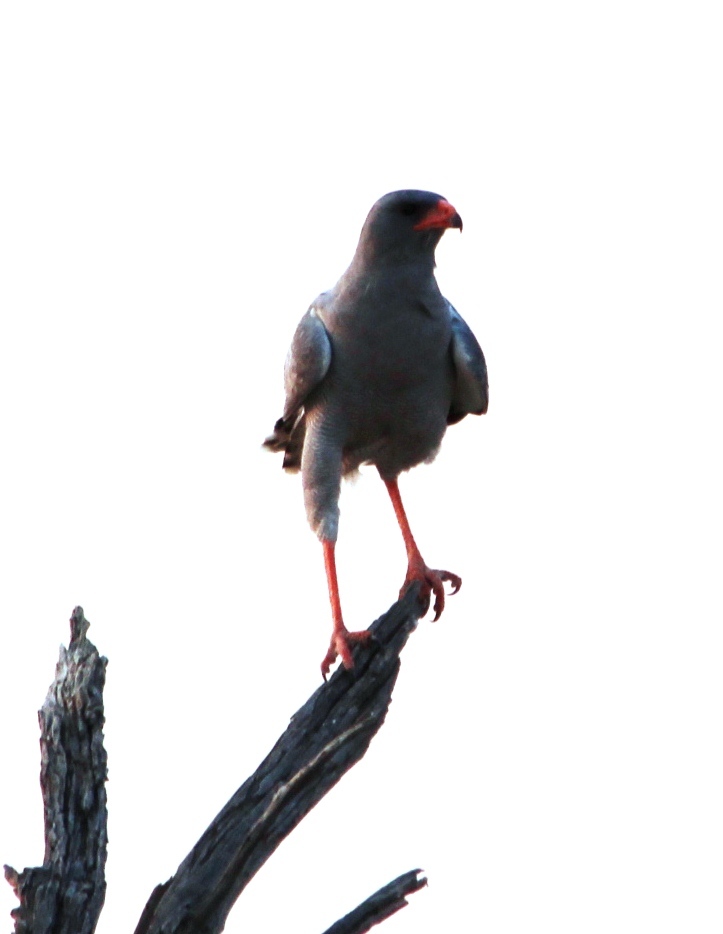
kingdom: Animalia
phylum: Chordata
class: Aves
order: Accipitriformes
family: Accipitridae
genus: Melierax
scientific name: Melierax canorus
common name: Pale chanting-goshawk
